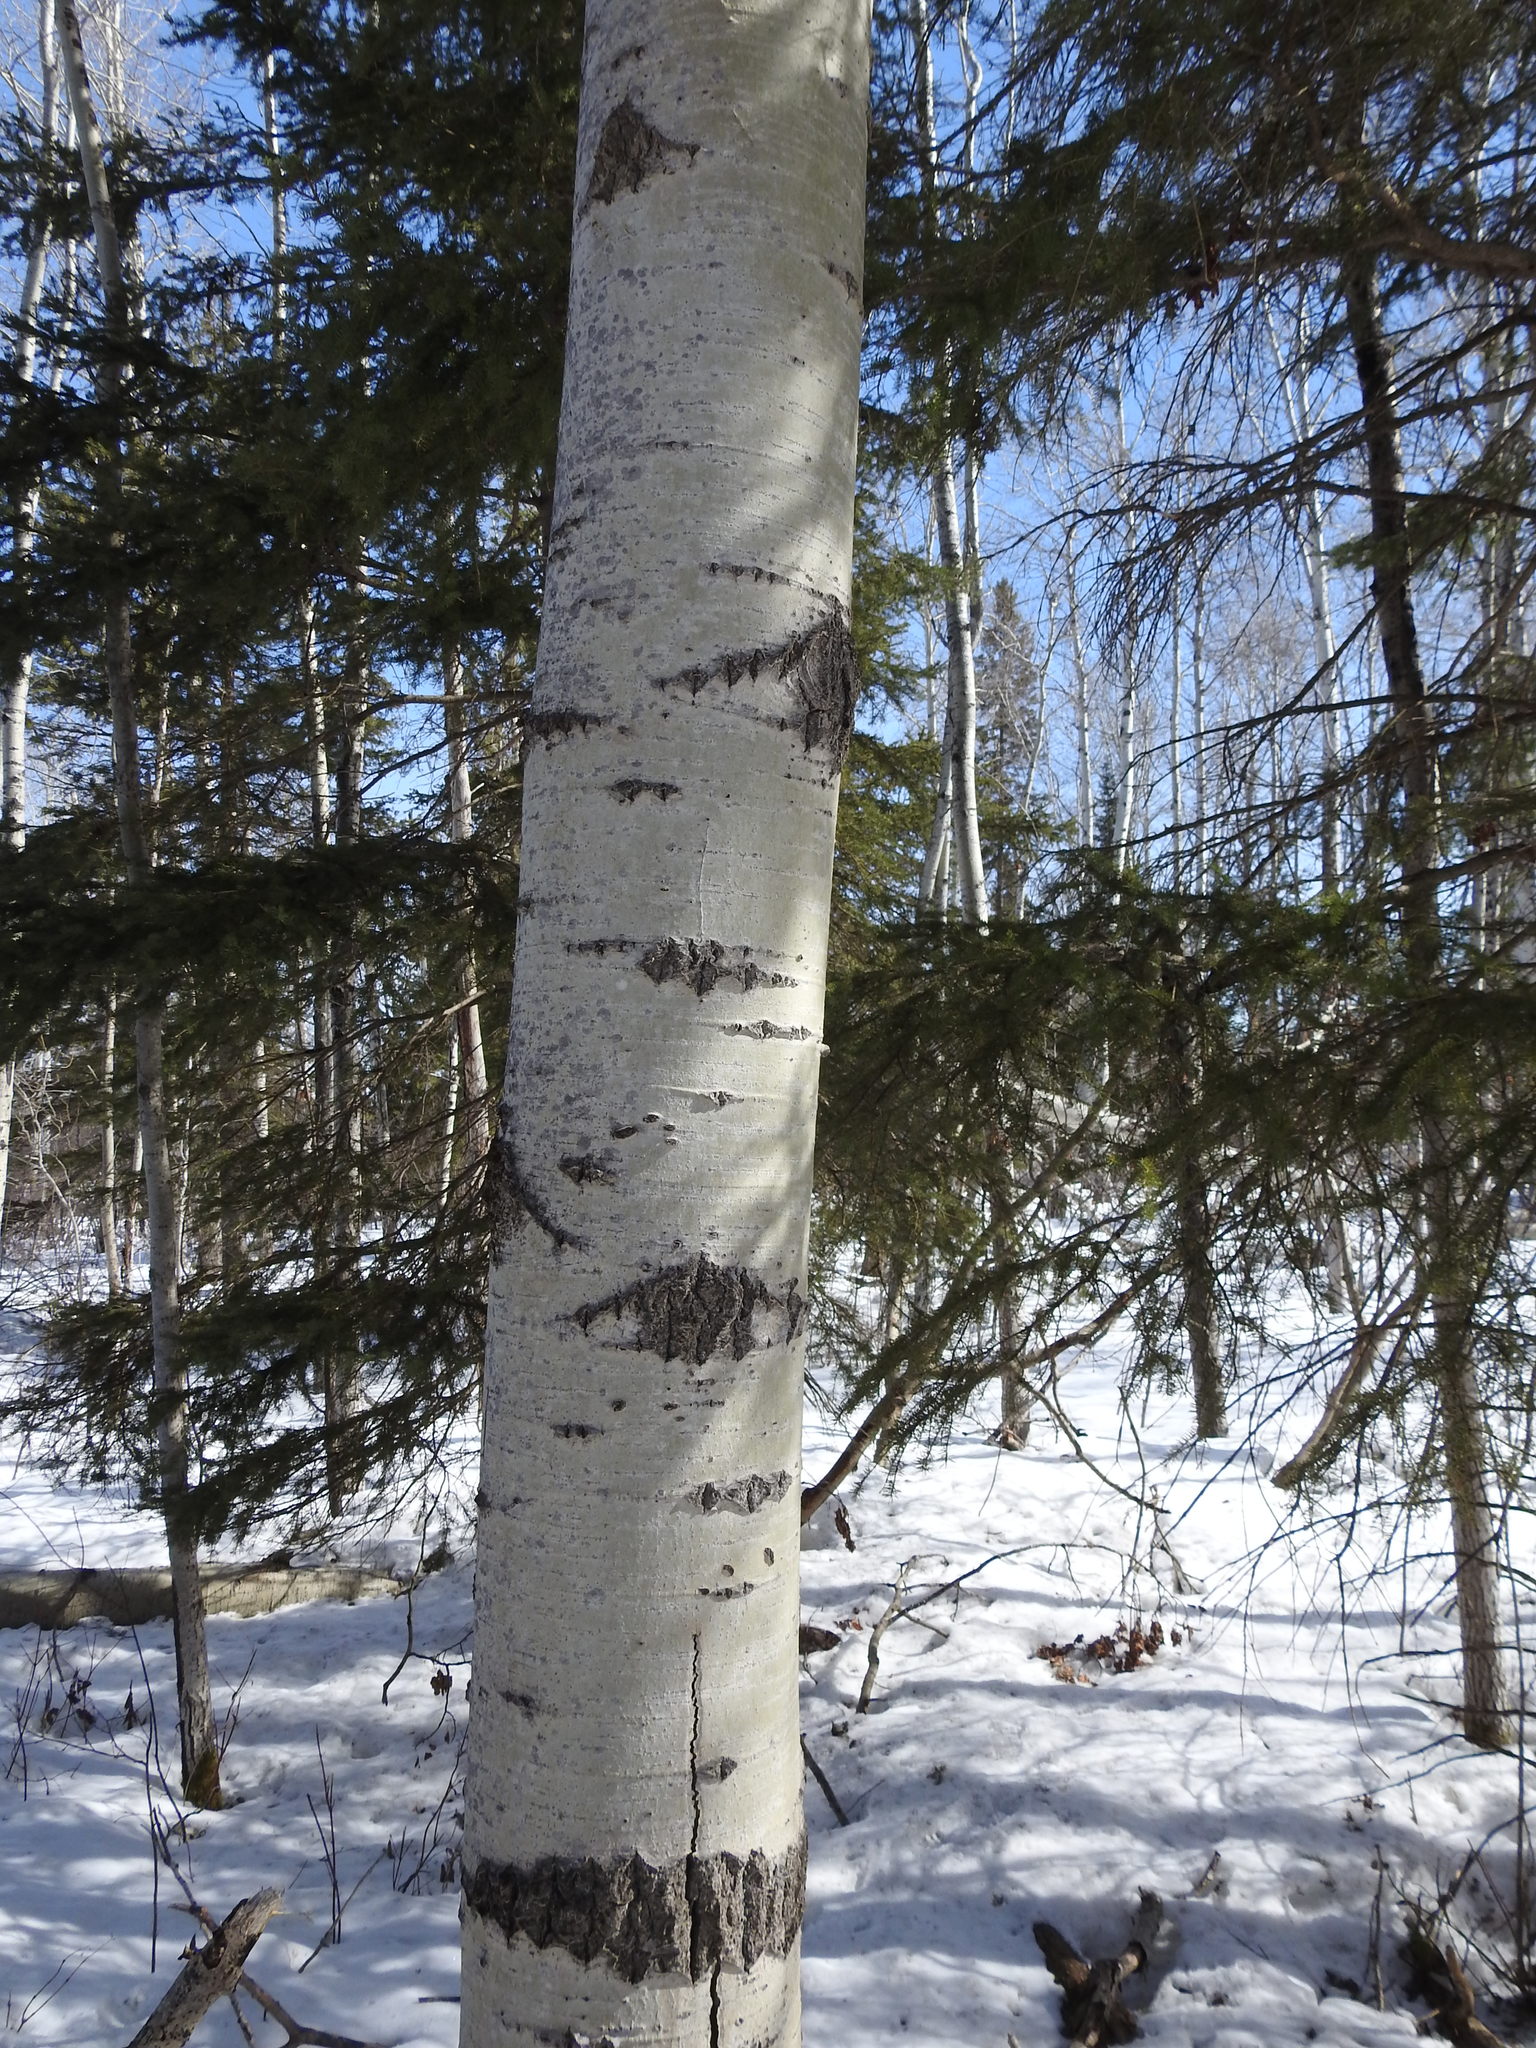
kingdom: Plantae
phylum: Tracheophyta
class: Magnoliopsida
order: Malpighiales
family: Salicaceae
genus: Populus
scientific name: Populus tremuloides
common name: Quaking aspen
